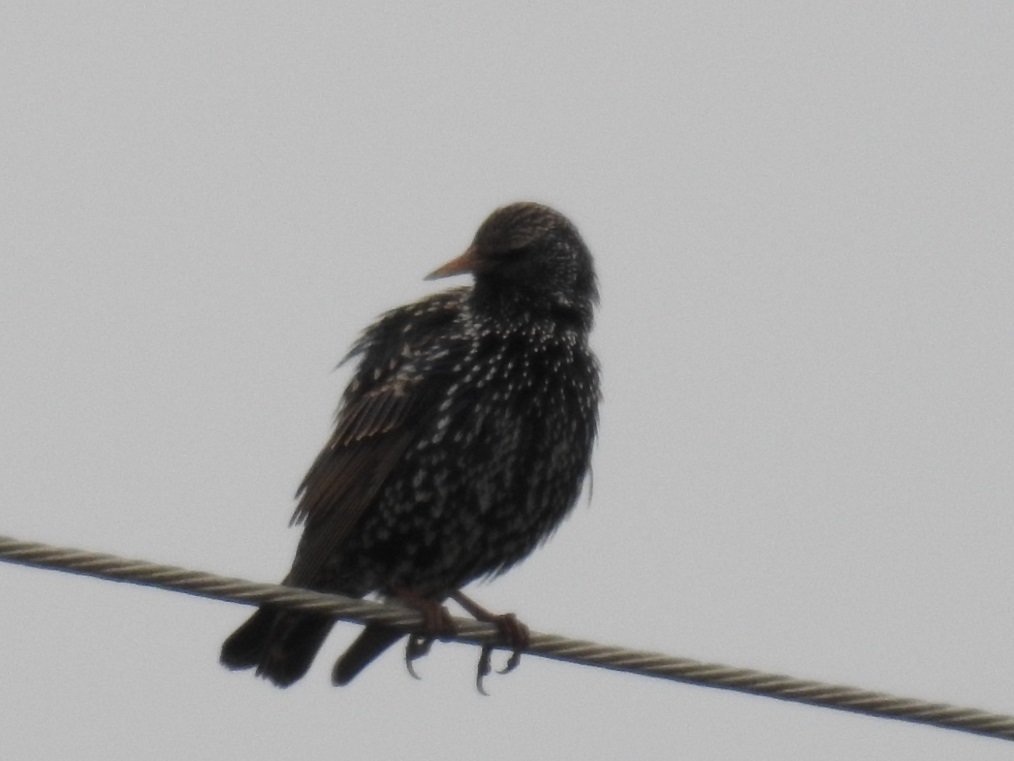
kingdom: Animalia
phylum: Chordata
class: Aves
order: Passeriformes
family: Sturnidae
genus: Sturnus
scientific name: Sturnus vulgaris
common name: Common starling
